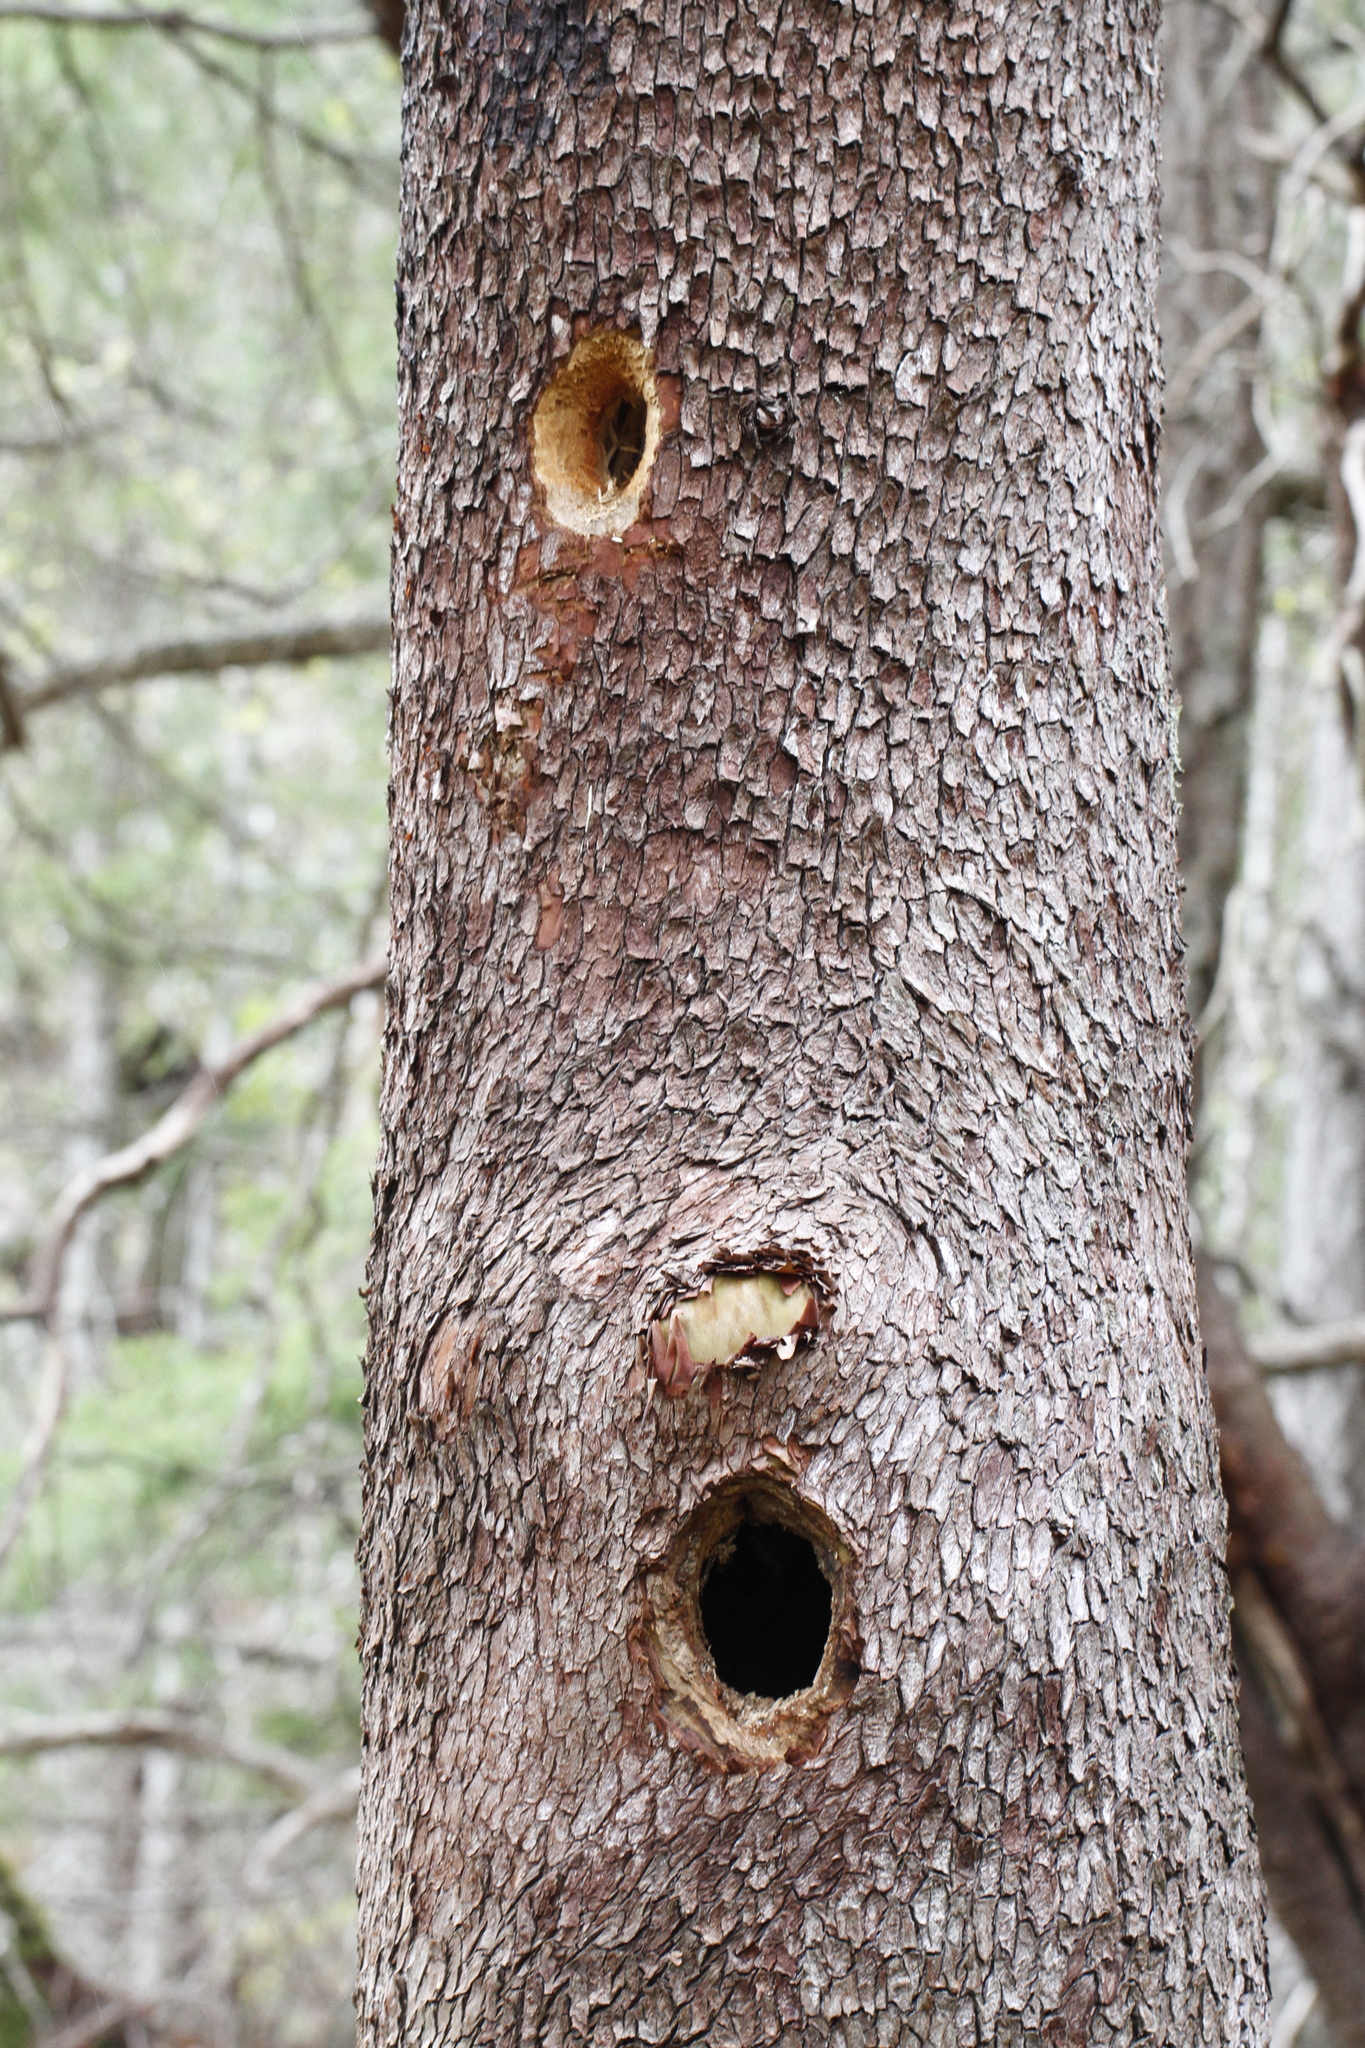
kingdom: Plantae
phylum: Tracheophyta
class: Magnoliopsida
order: Ericales
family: Ericaceae
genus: Arbutus
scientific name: Arbutus menziesii
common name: Pacific madrone
